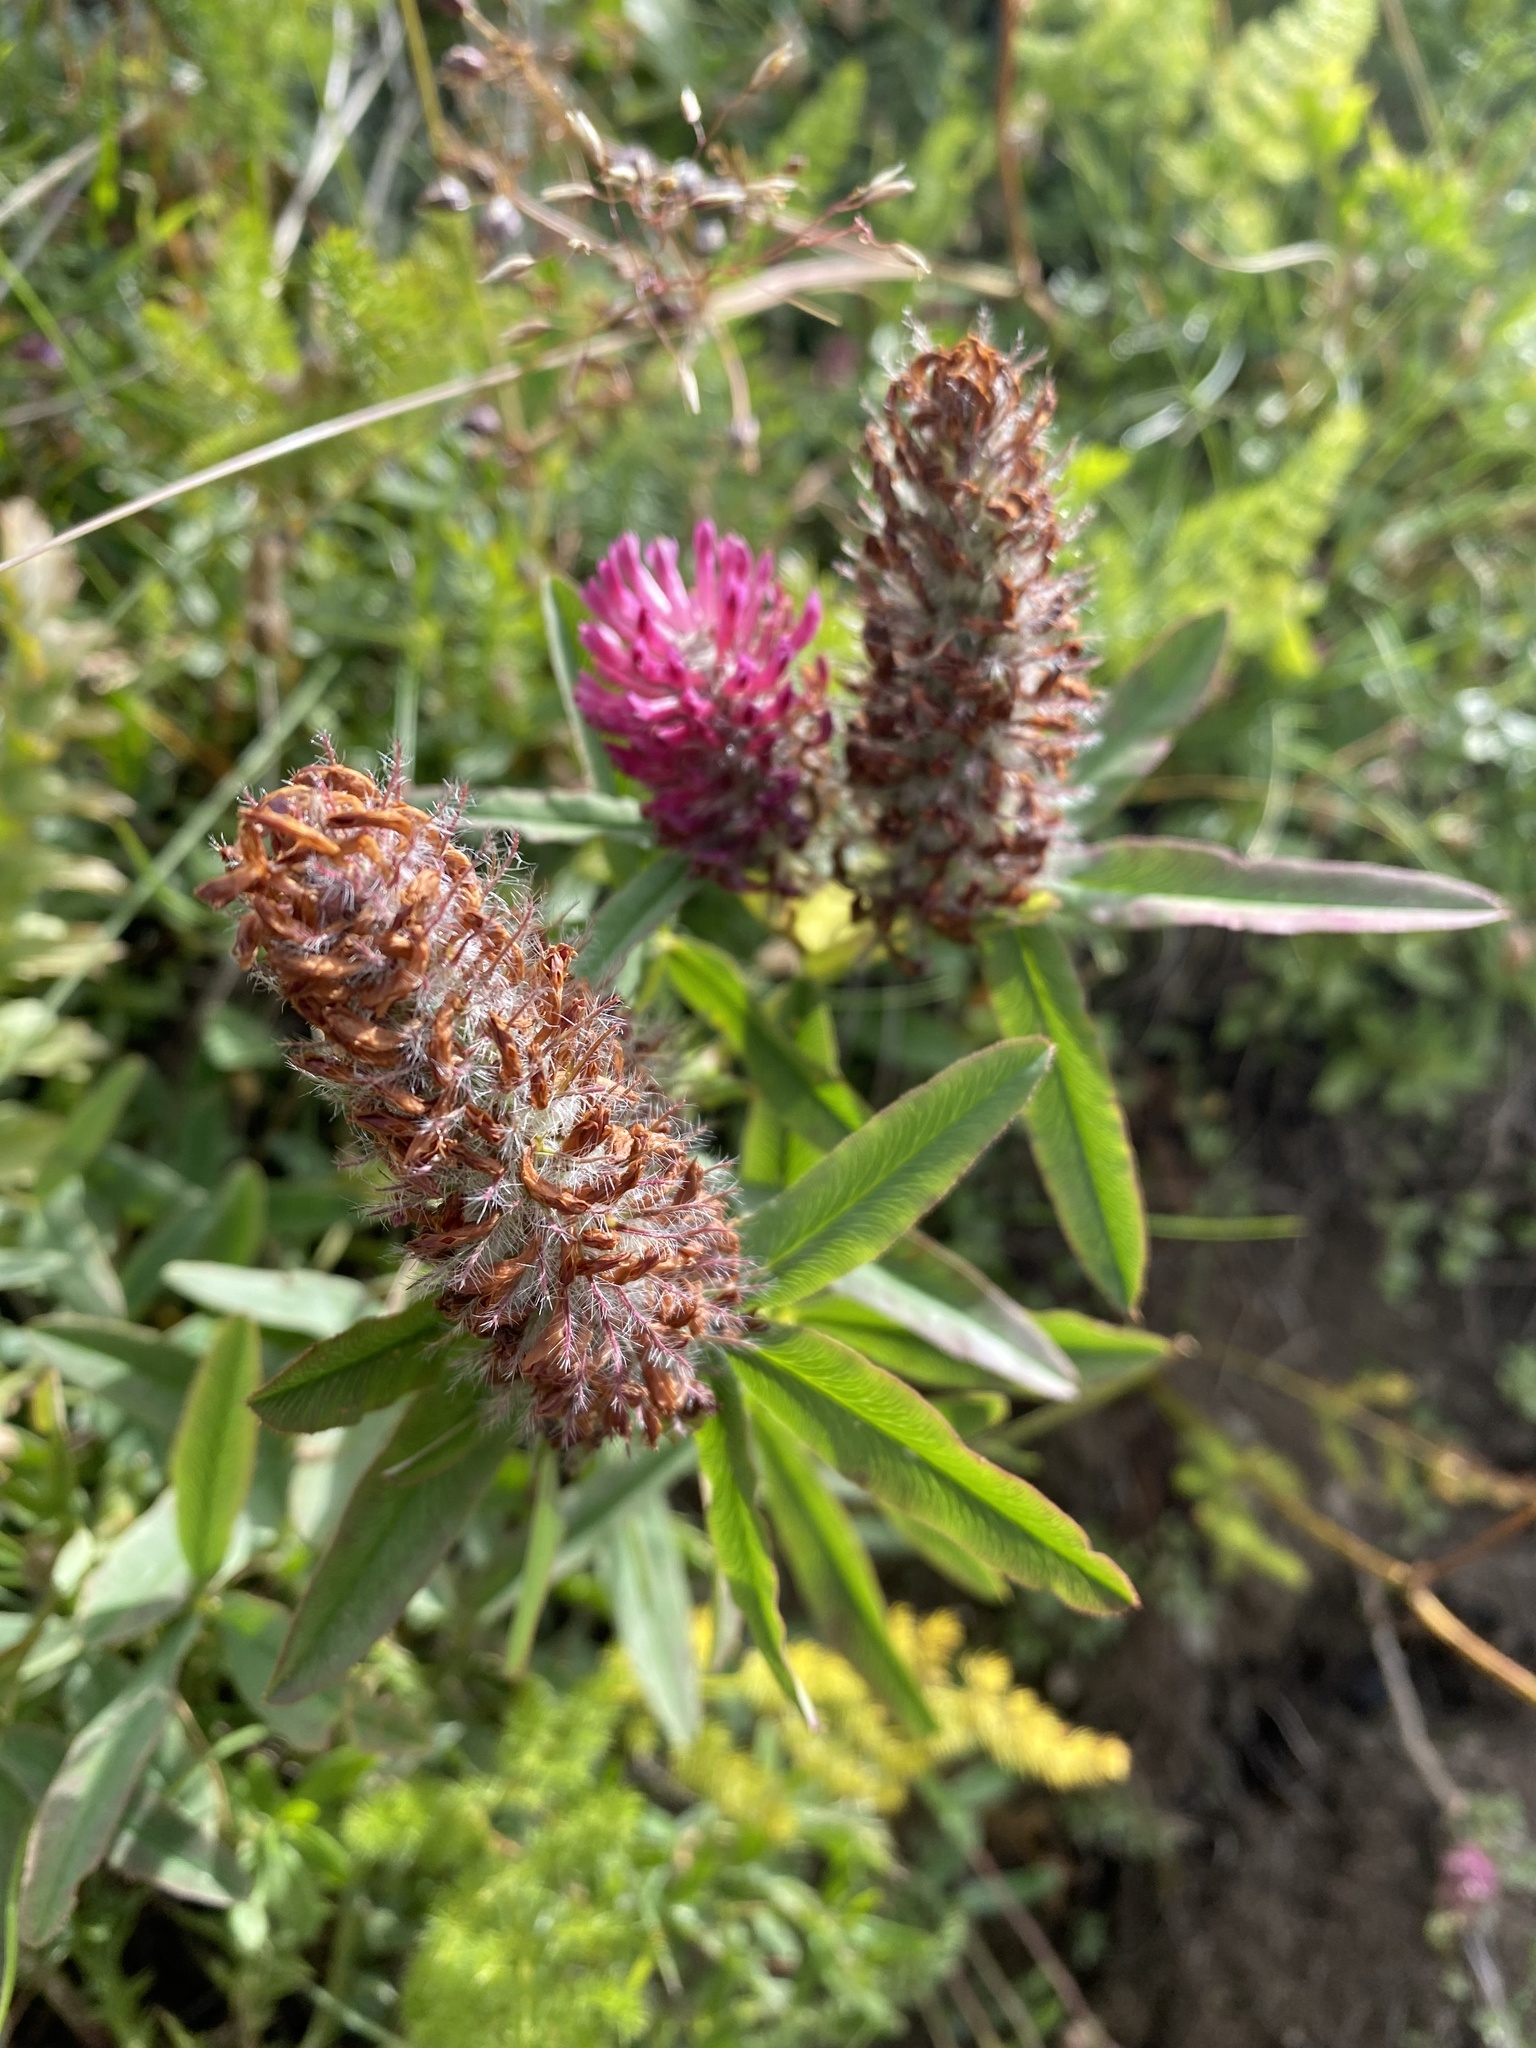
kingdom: Plantae
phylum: Tracheophyta
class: Magnoliopsida
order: Fabales
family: Fabaceae
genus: Trifolium
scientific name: Trifolium rubens
